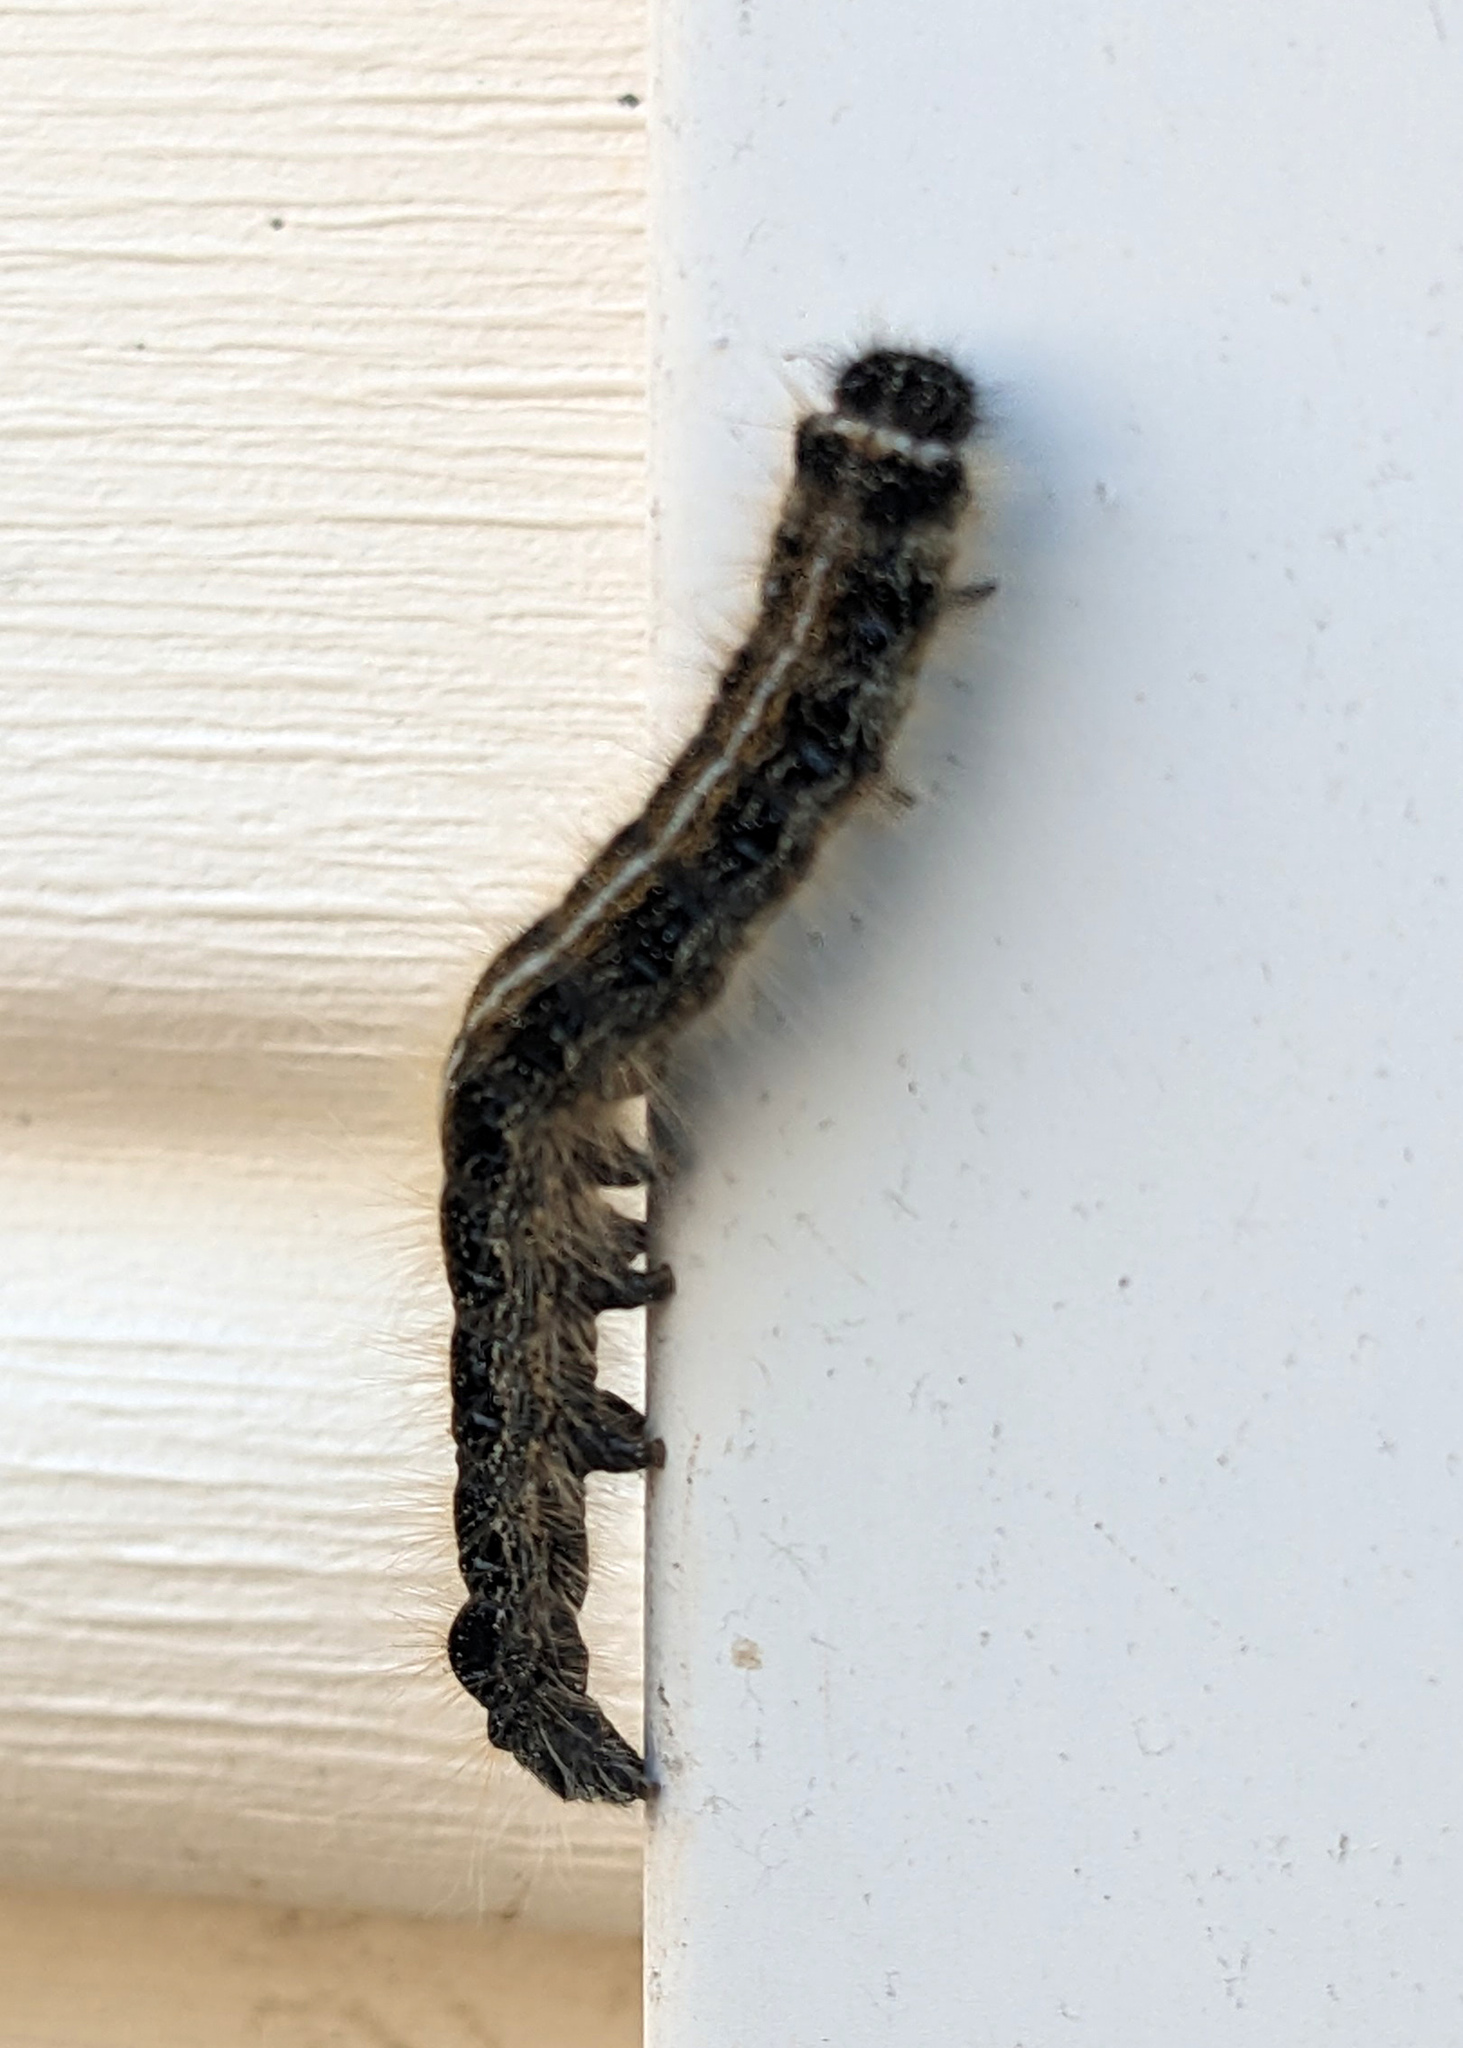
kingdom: Animalia
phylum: Arthropoda
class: Insecta
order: Lepidoptera
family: Lasiocampidae
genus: Malacosoma
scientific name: Malacosoma americana
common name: Eastern tent caterpillar moth
